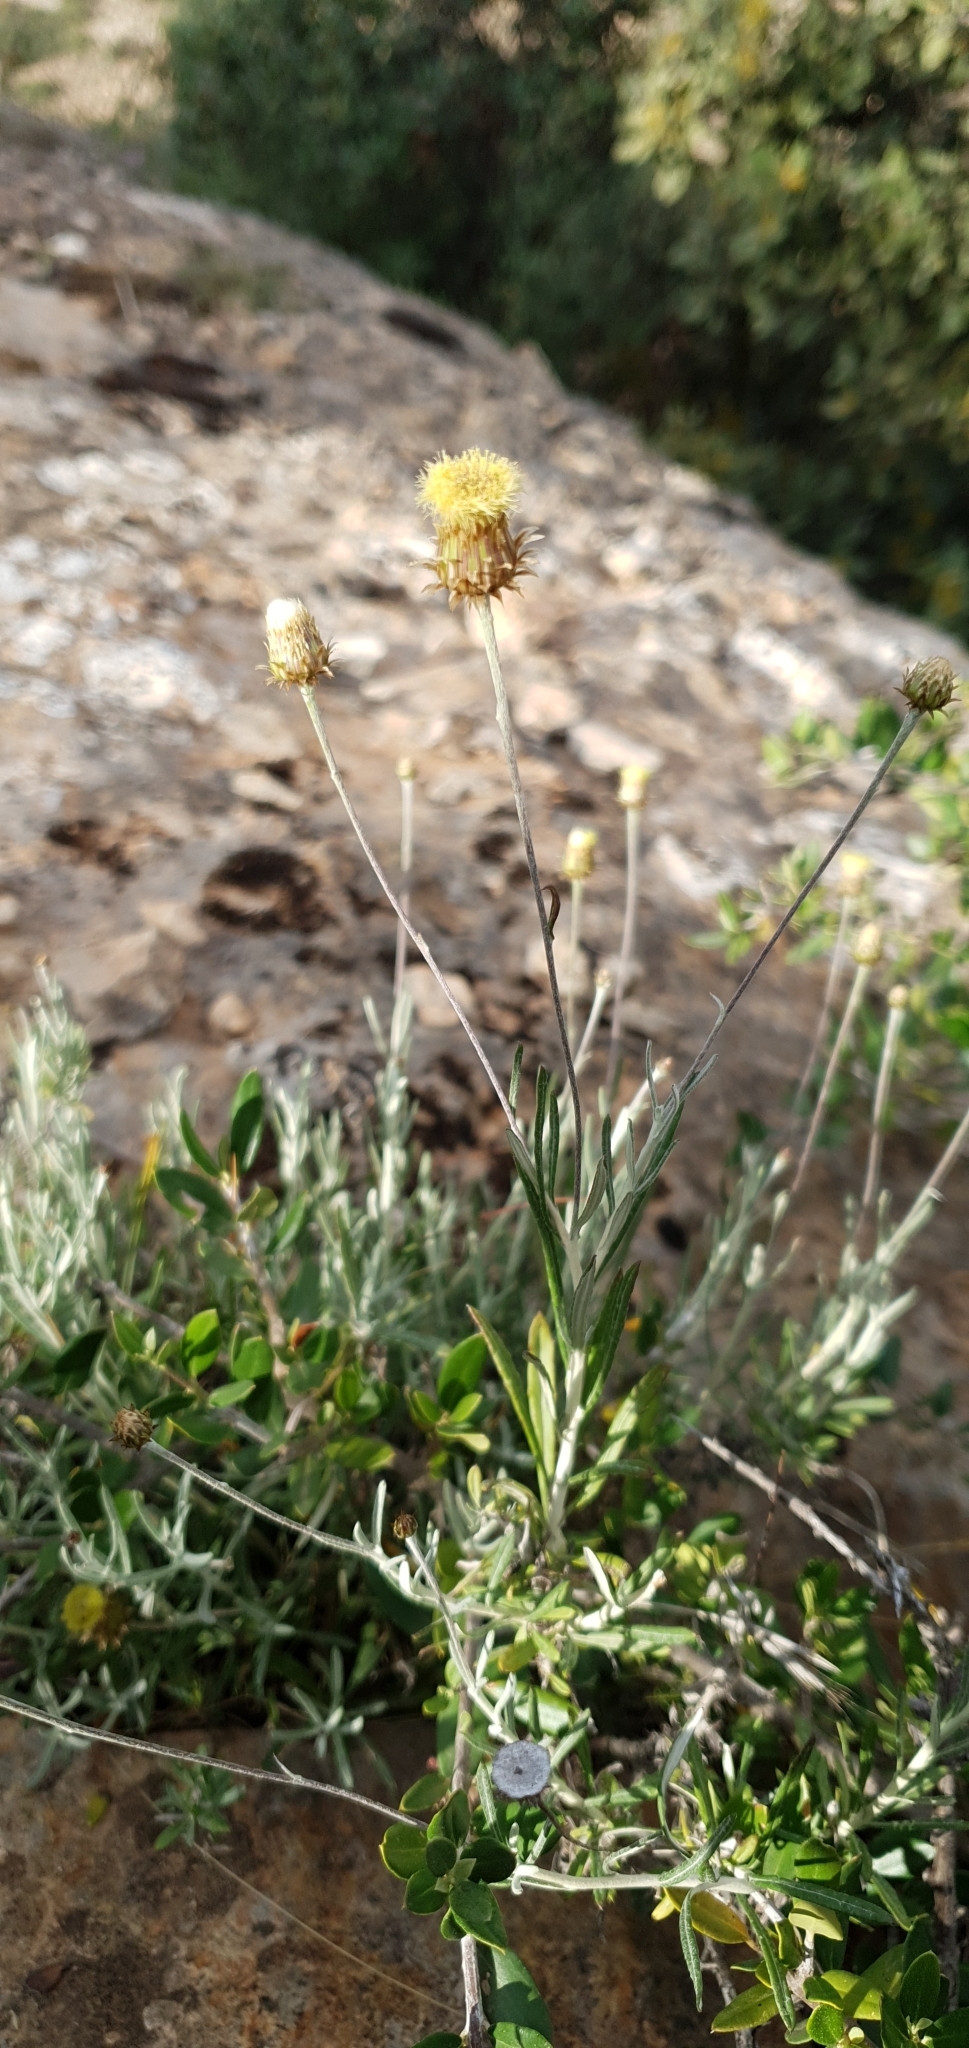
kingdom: Plantae
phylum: Tracheophyta
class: Magnoliopsida
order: Asterales
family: Asteraceae
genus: Phagnalon
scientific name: Phagnalon saxatile
